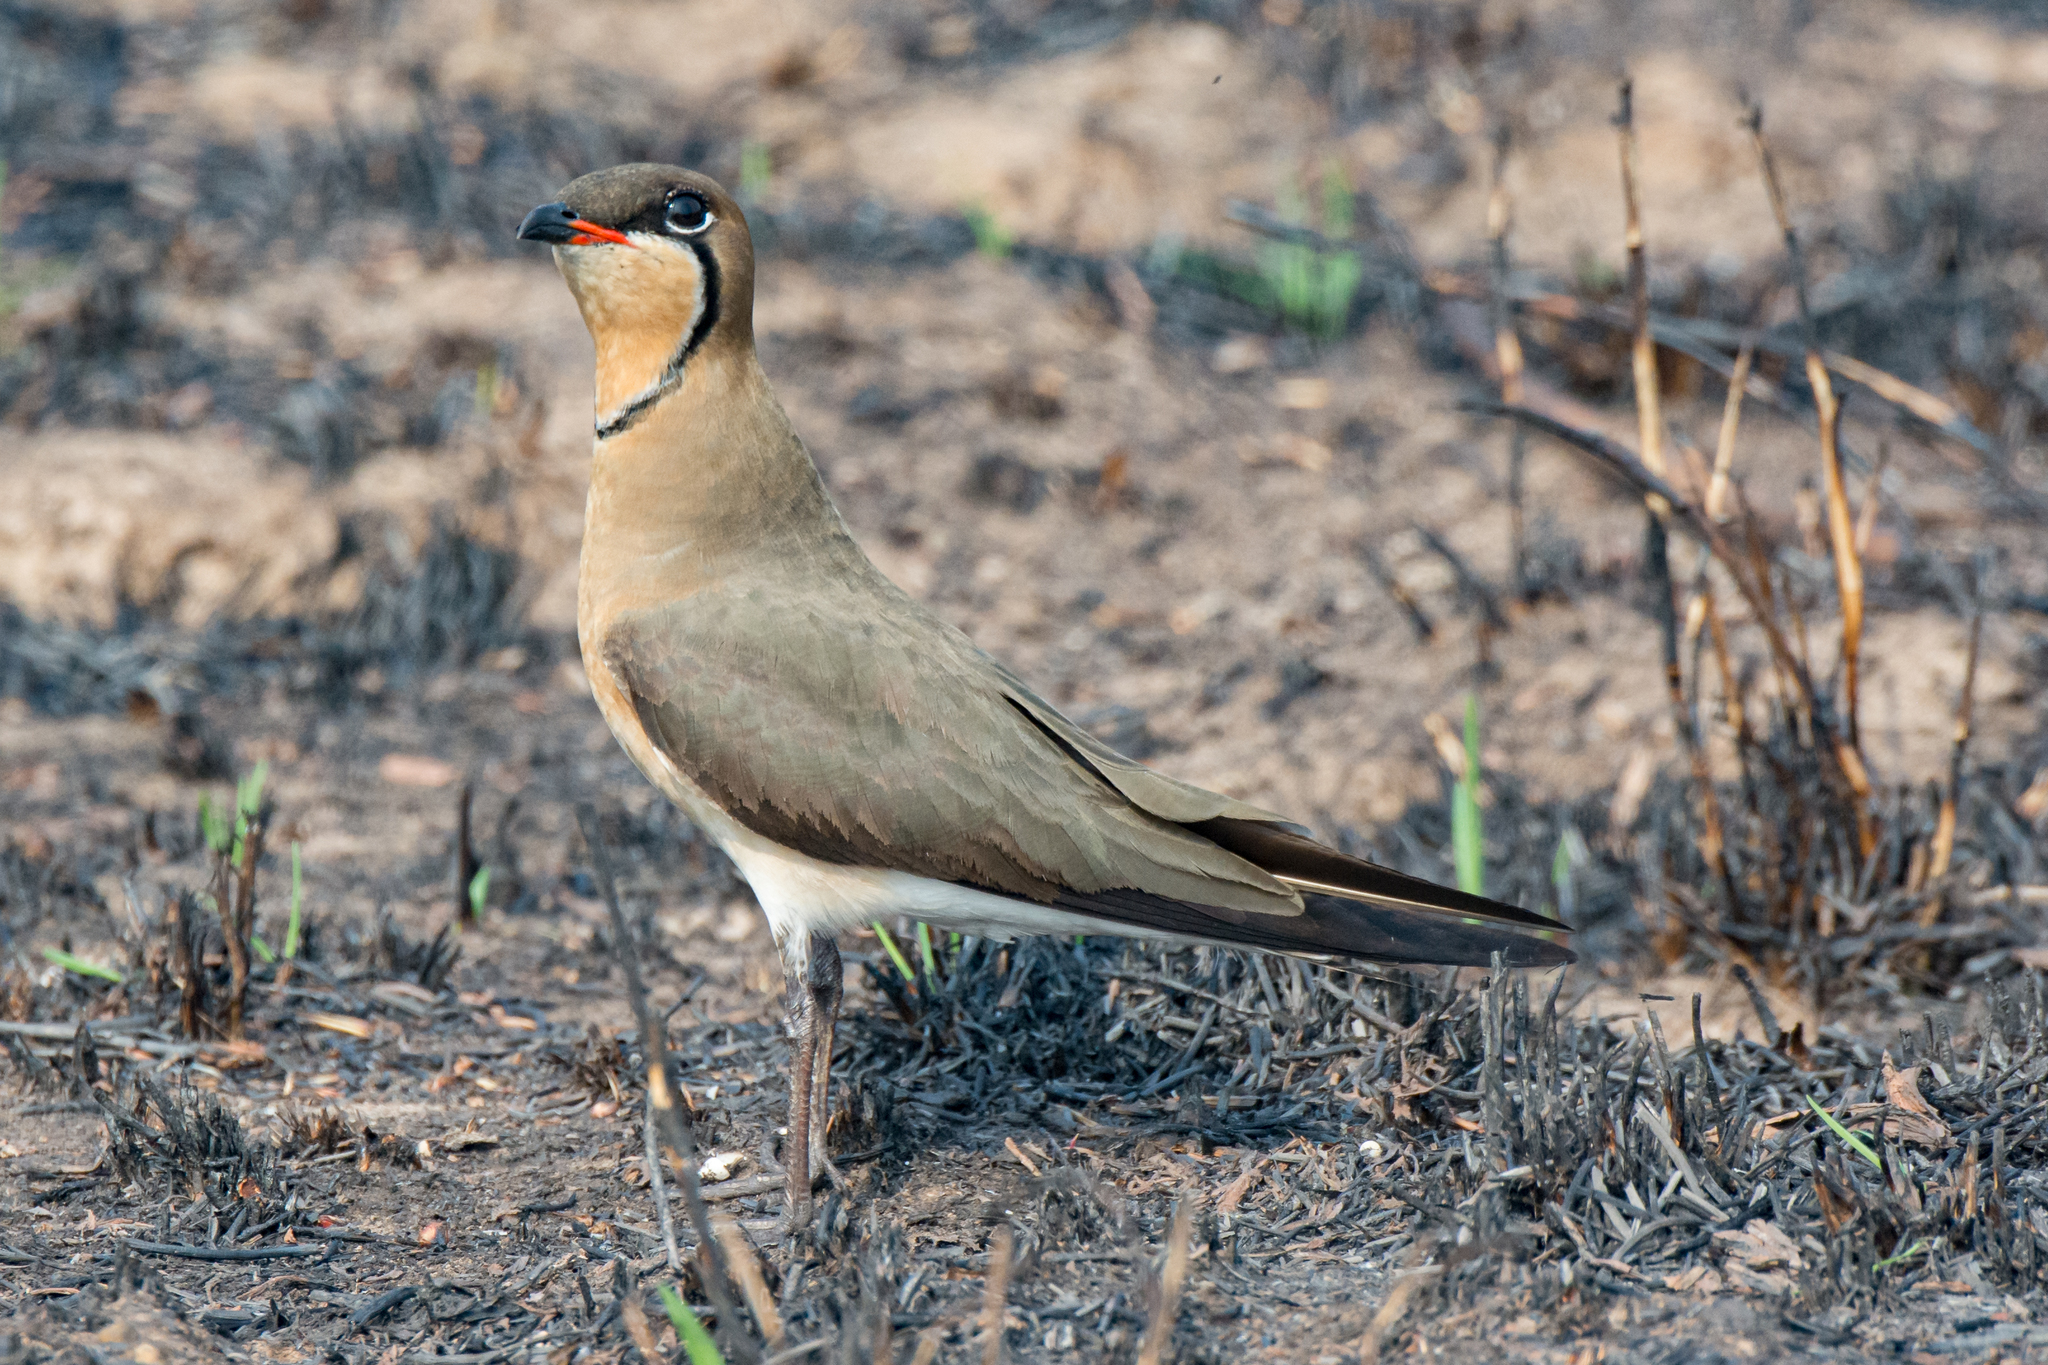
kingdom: Animalia
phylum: Chordata
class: Aves
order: Charadriiformes
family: Glareolidae
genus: Glareola
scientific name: Glareola maldivarum
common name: Oriental pratincole
